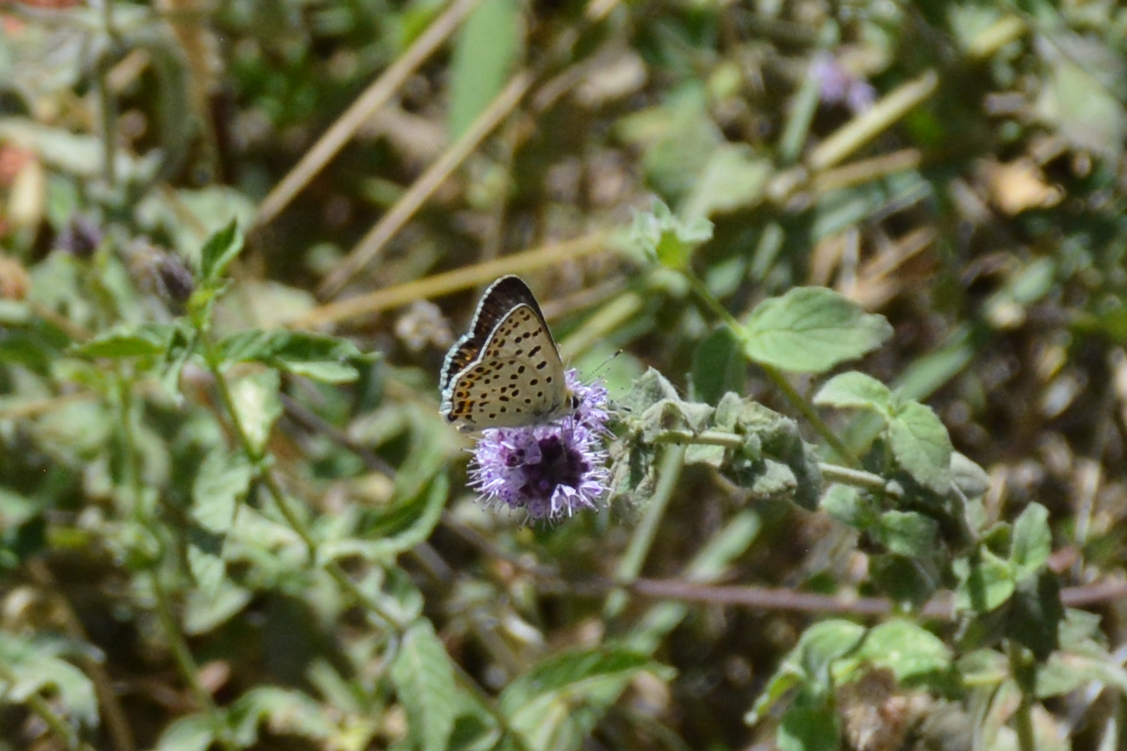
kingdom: Animalia
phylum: Arthropoda
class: Insecta
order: Lepidoptera
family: Lycaenidae
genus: Loweia
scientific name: Loweia tityrus
